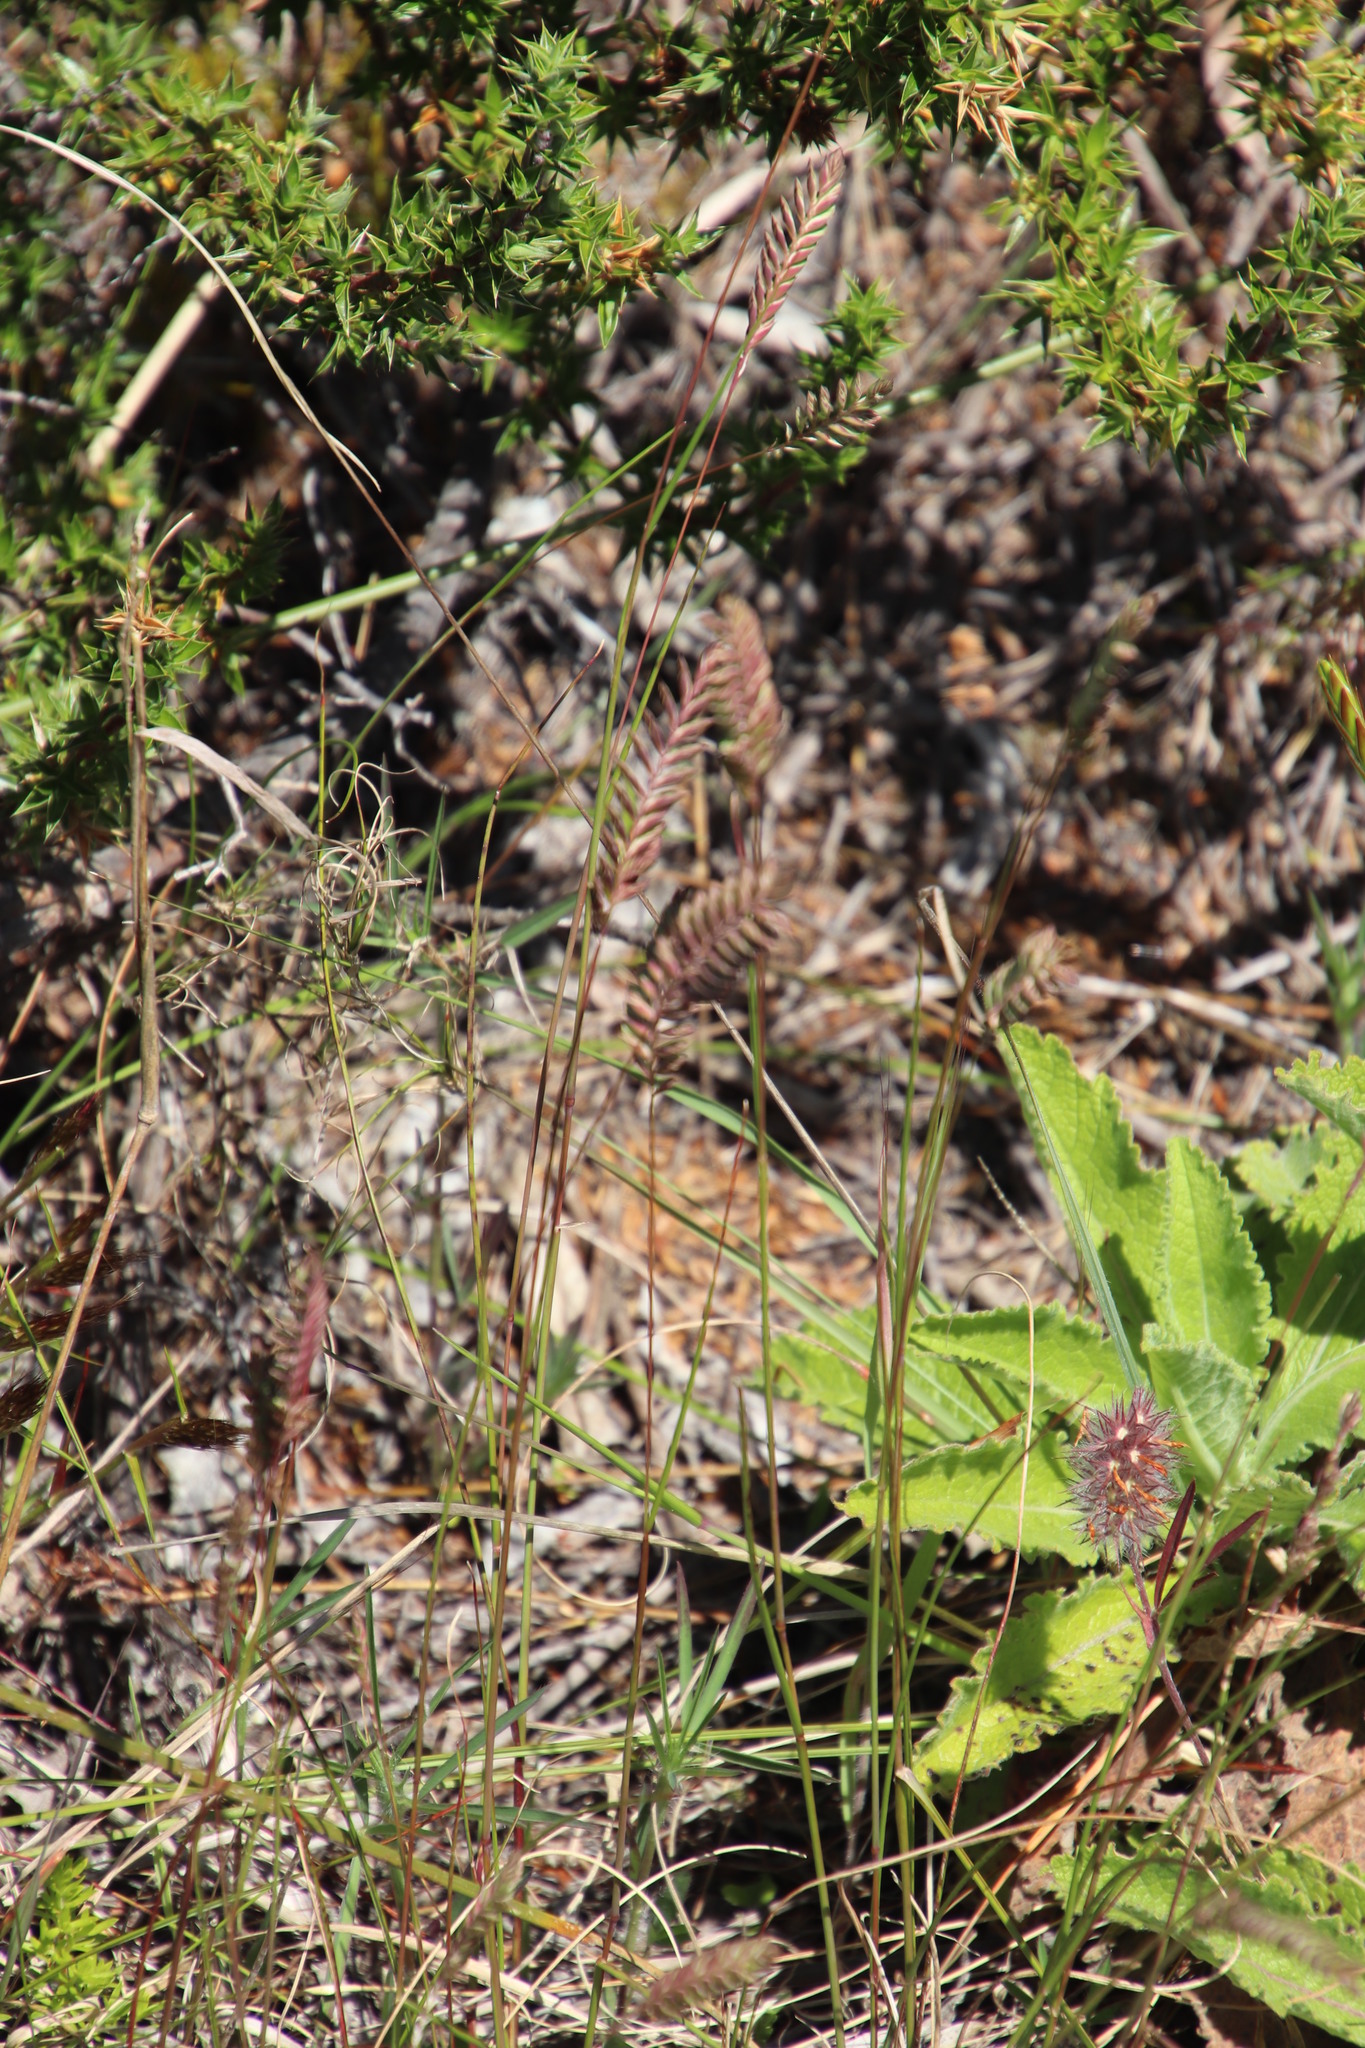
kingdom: Plantae
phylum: Tracheophyta
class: Liliopsida
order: Poales
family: Poaceae
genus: Tribolium
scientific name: Tribolium uniolae
